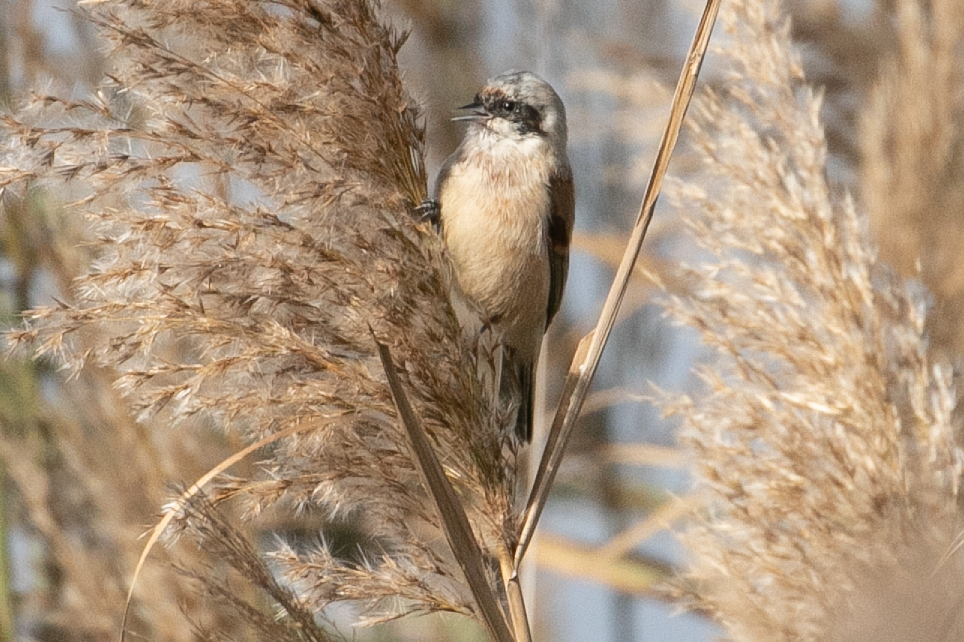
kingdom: Animalia
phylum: Chordata
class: Aves
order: Passeriformes
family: Remizidae
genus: Remiz
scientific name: Remiz pendulinus
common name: Eurasian penduline tit
